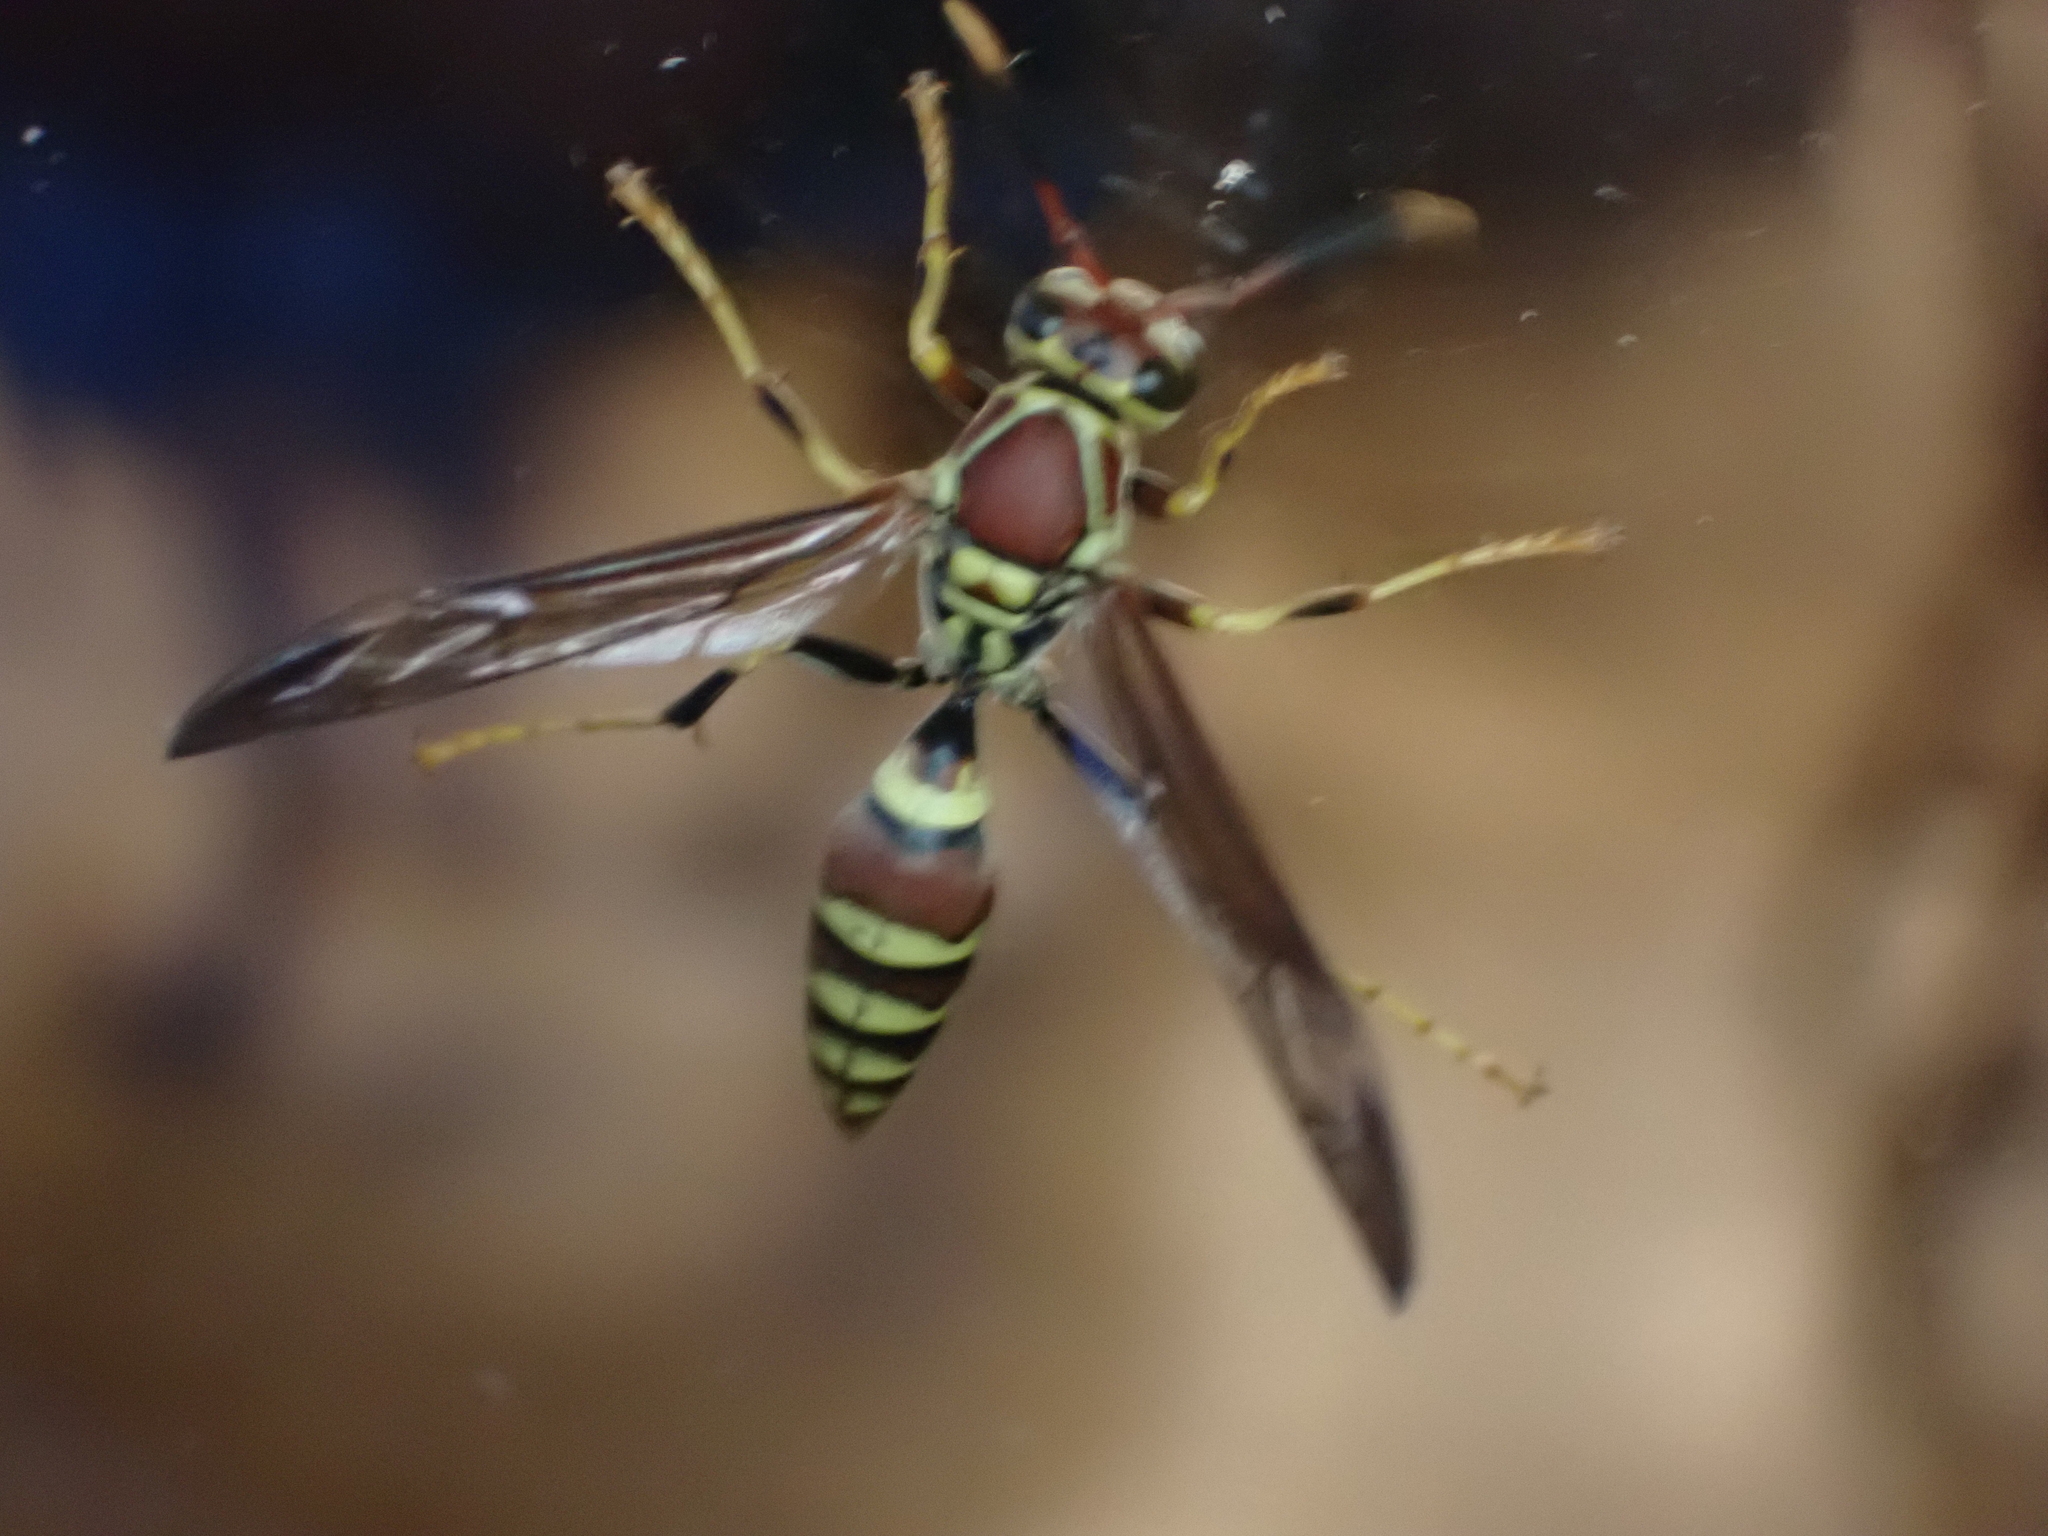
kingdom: Animalia
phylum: Arthropoda
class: Insecta
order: Hymenoptera
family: Eumenidae
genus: Polistes
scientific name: Polistes exclamans
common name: Paper wasp
